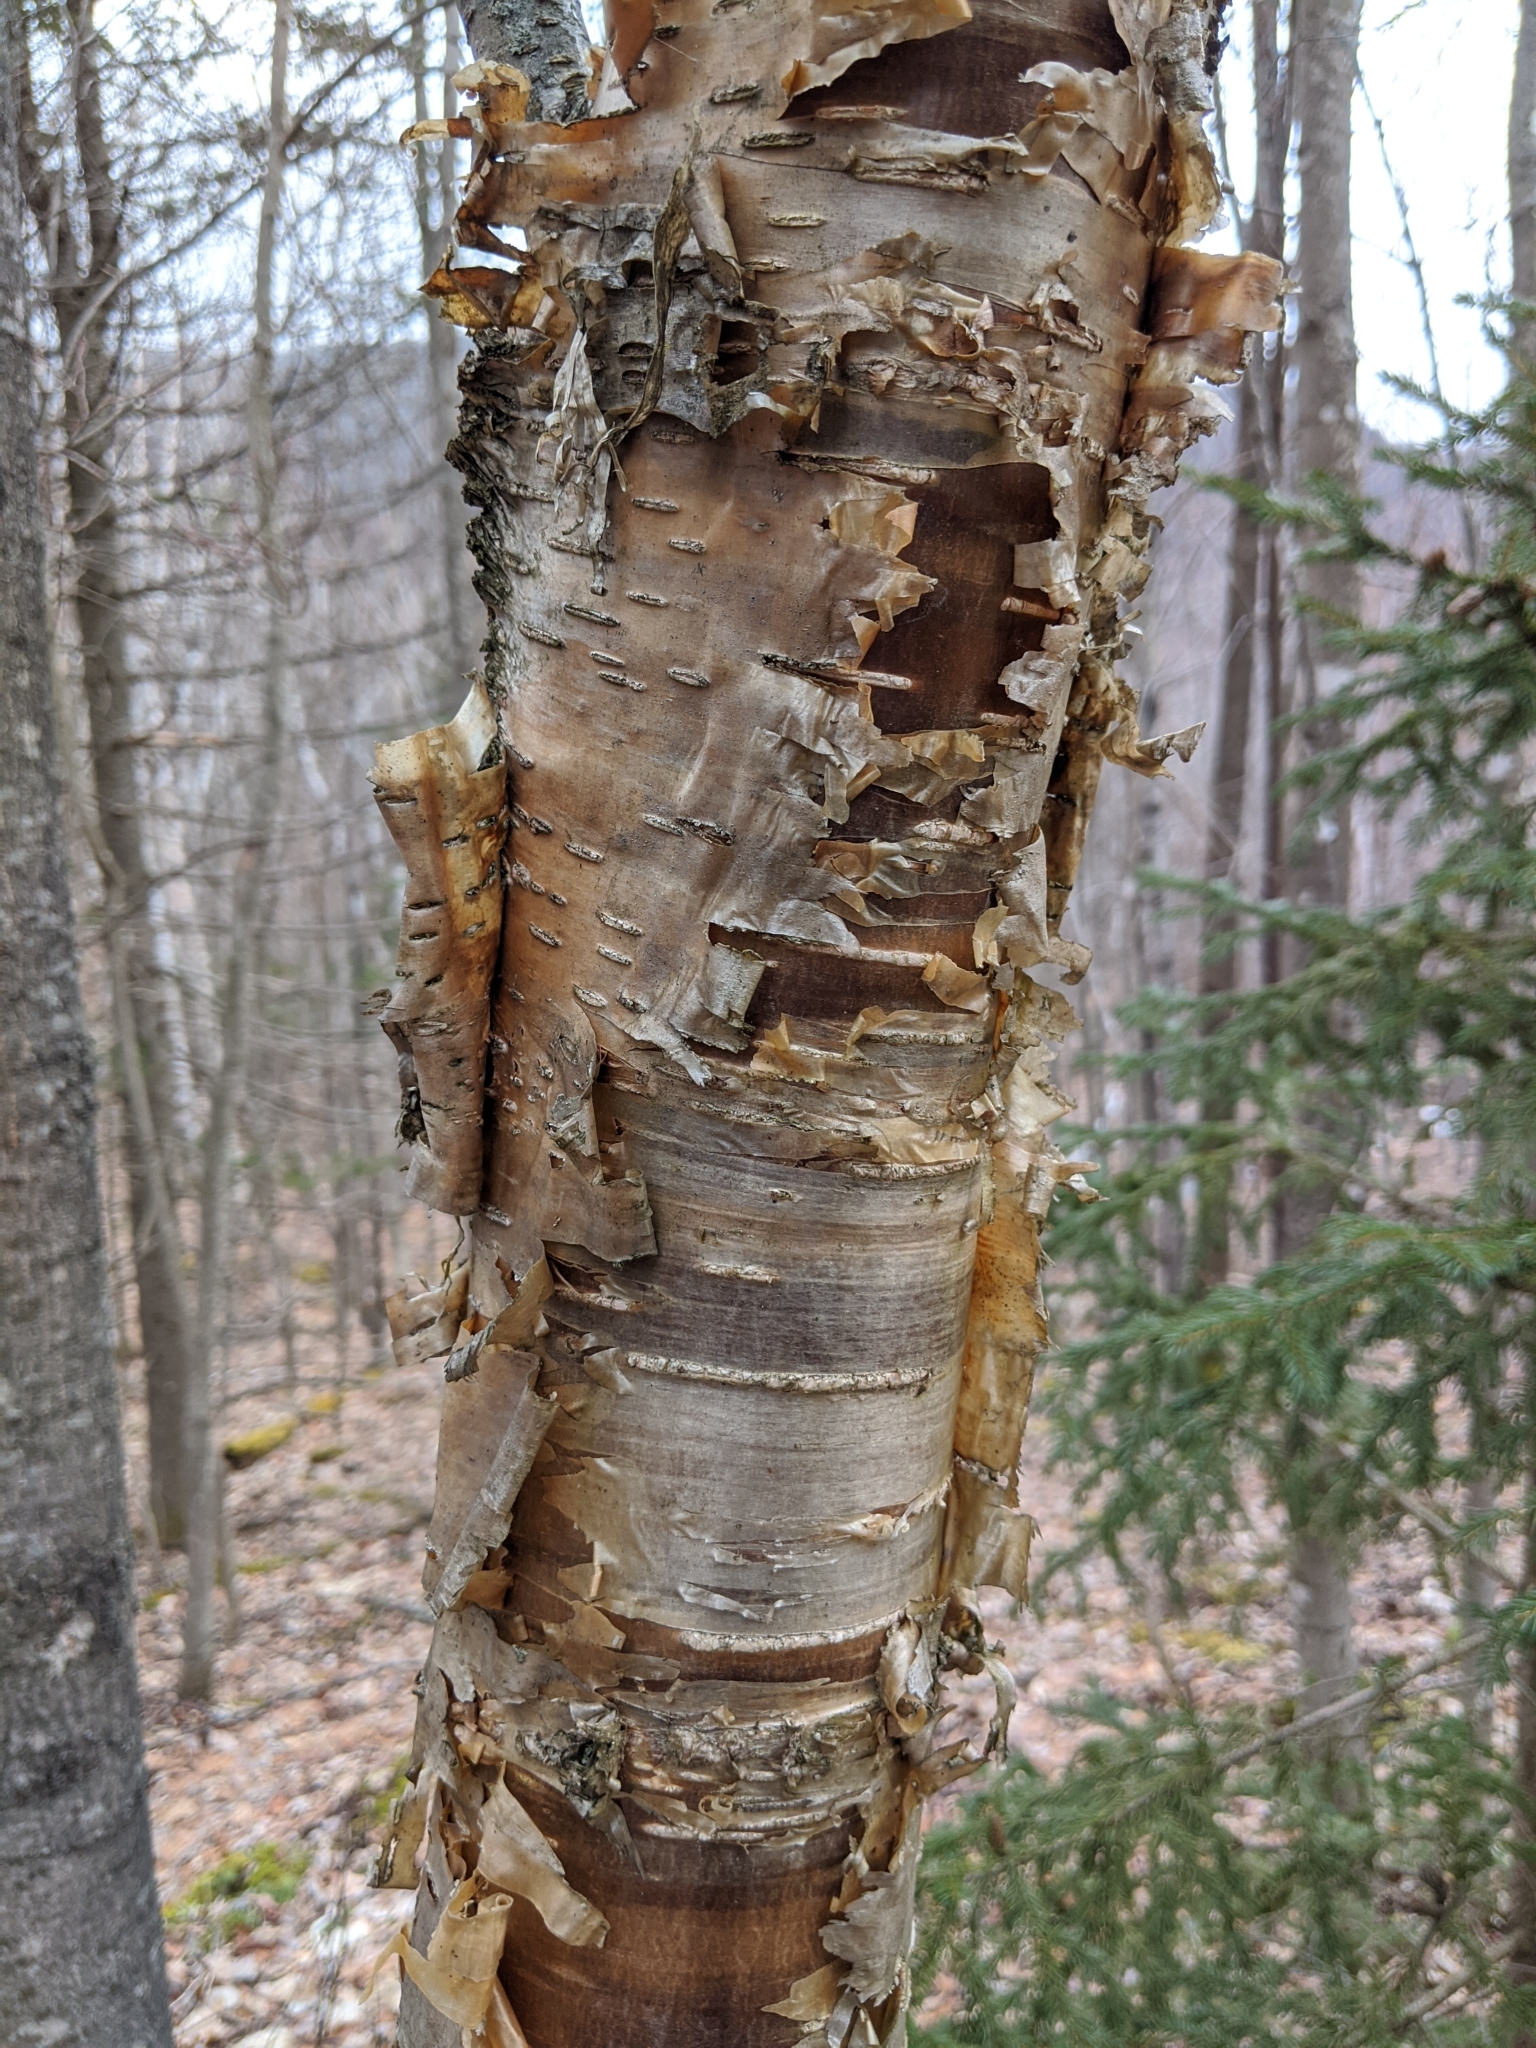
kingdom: Plantae
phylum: Tracheophyta
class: Magnoliopsida
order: Fagales
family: Betulaceae
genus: Betula
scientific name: Betula alleghaniensis
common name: Yellow birch
